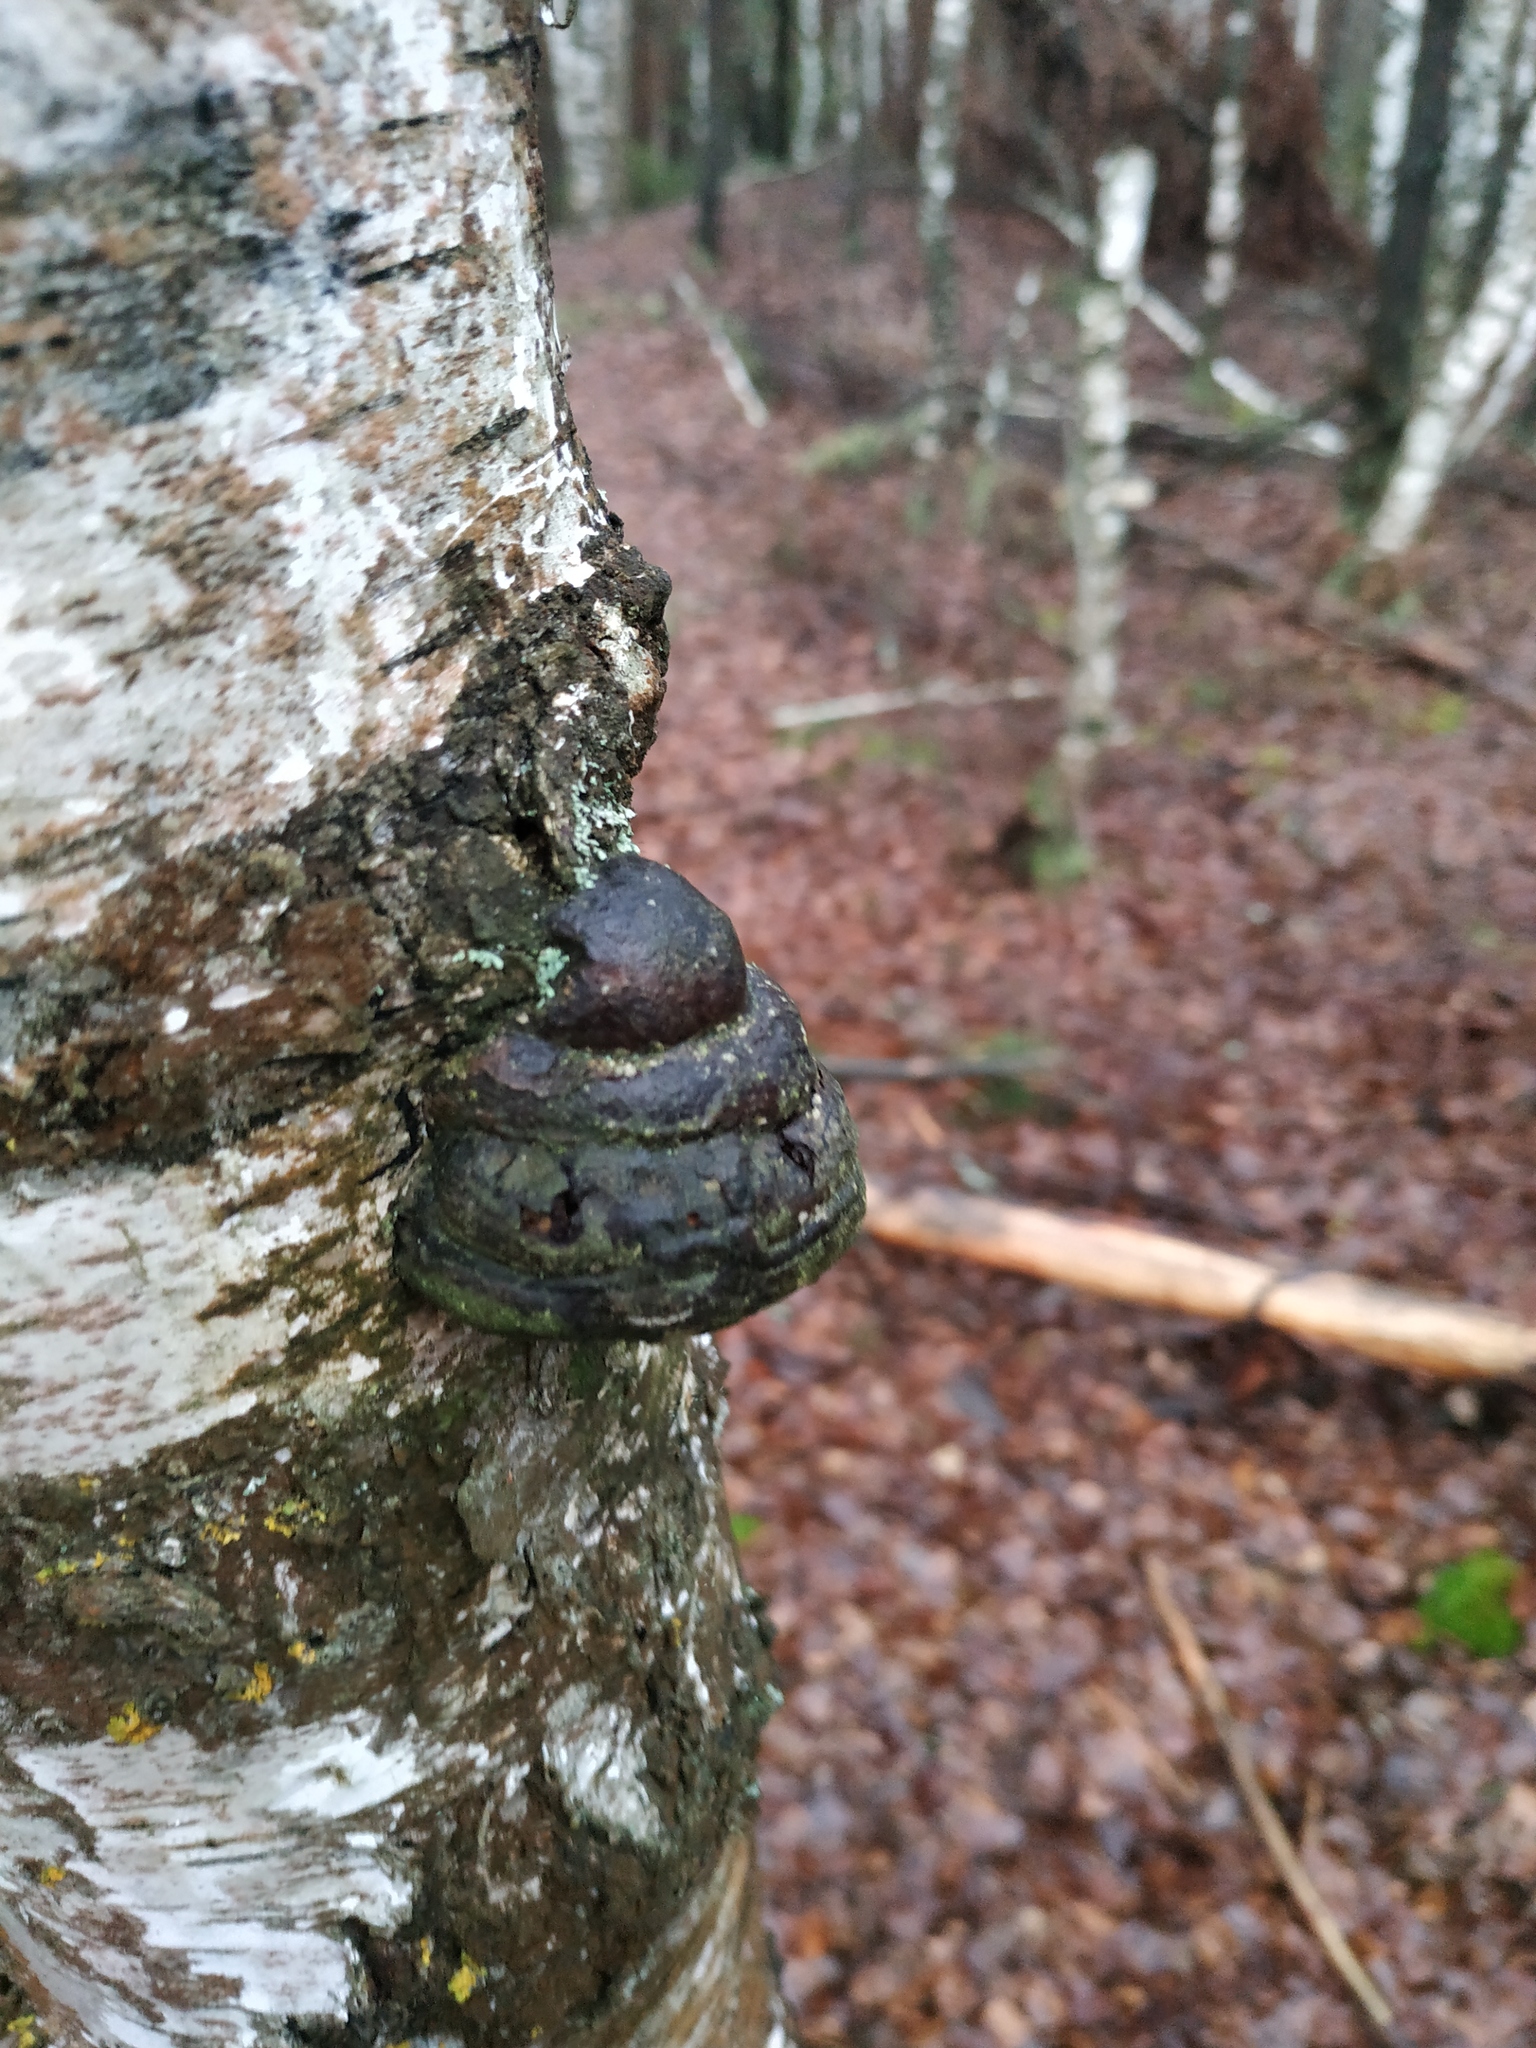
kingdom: Fungi
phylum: Basidiomycota
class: Agaricomycetes
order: Polyporales
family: Polyporaceae
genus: Fomes
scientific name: Fomes fomentarius
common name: Hoof fungus
